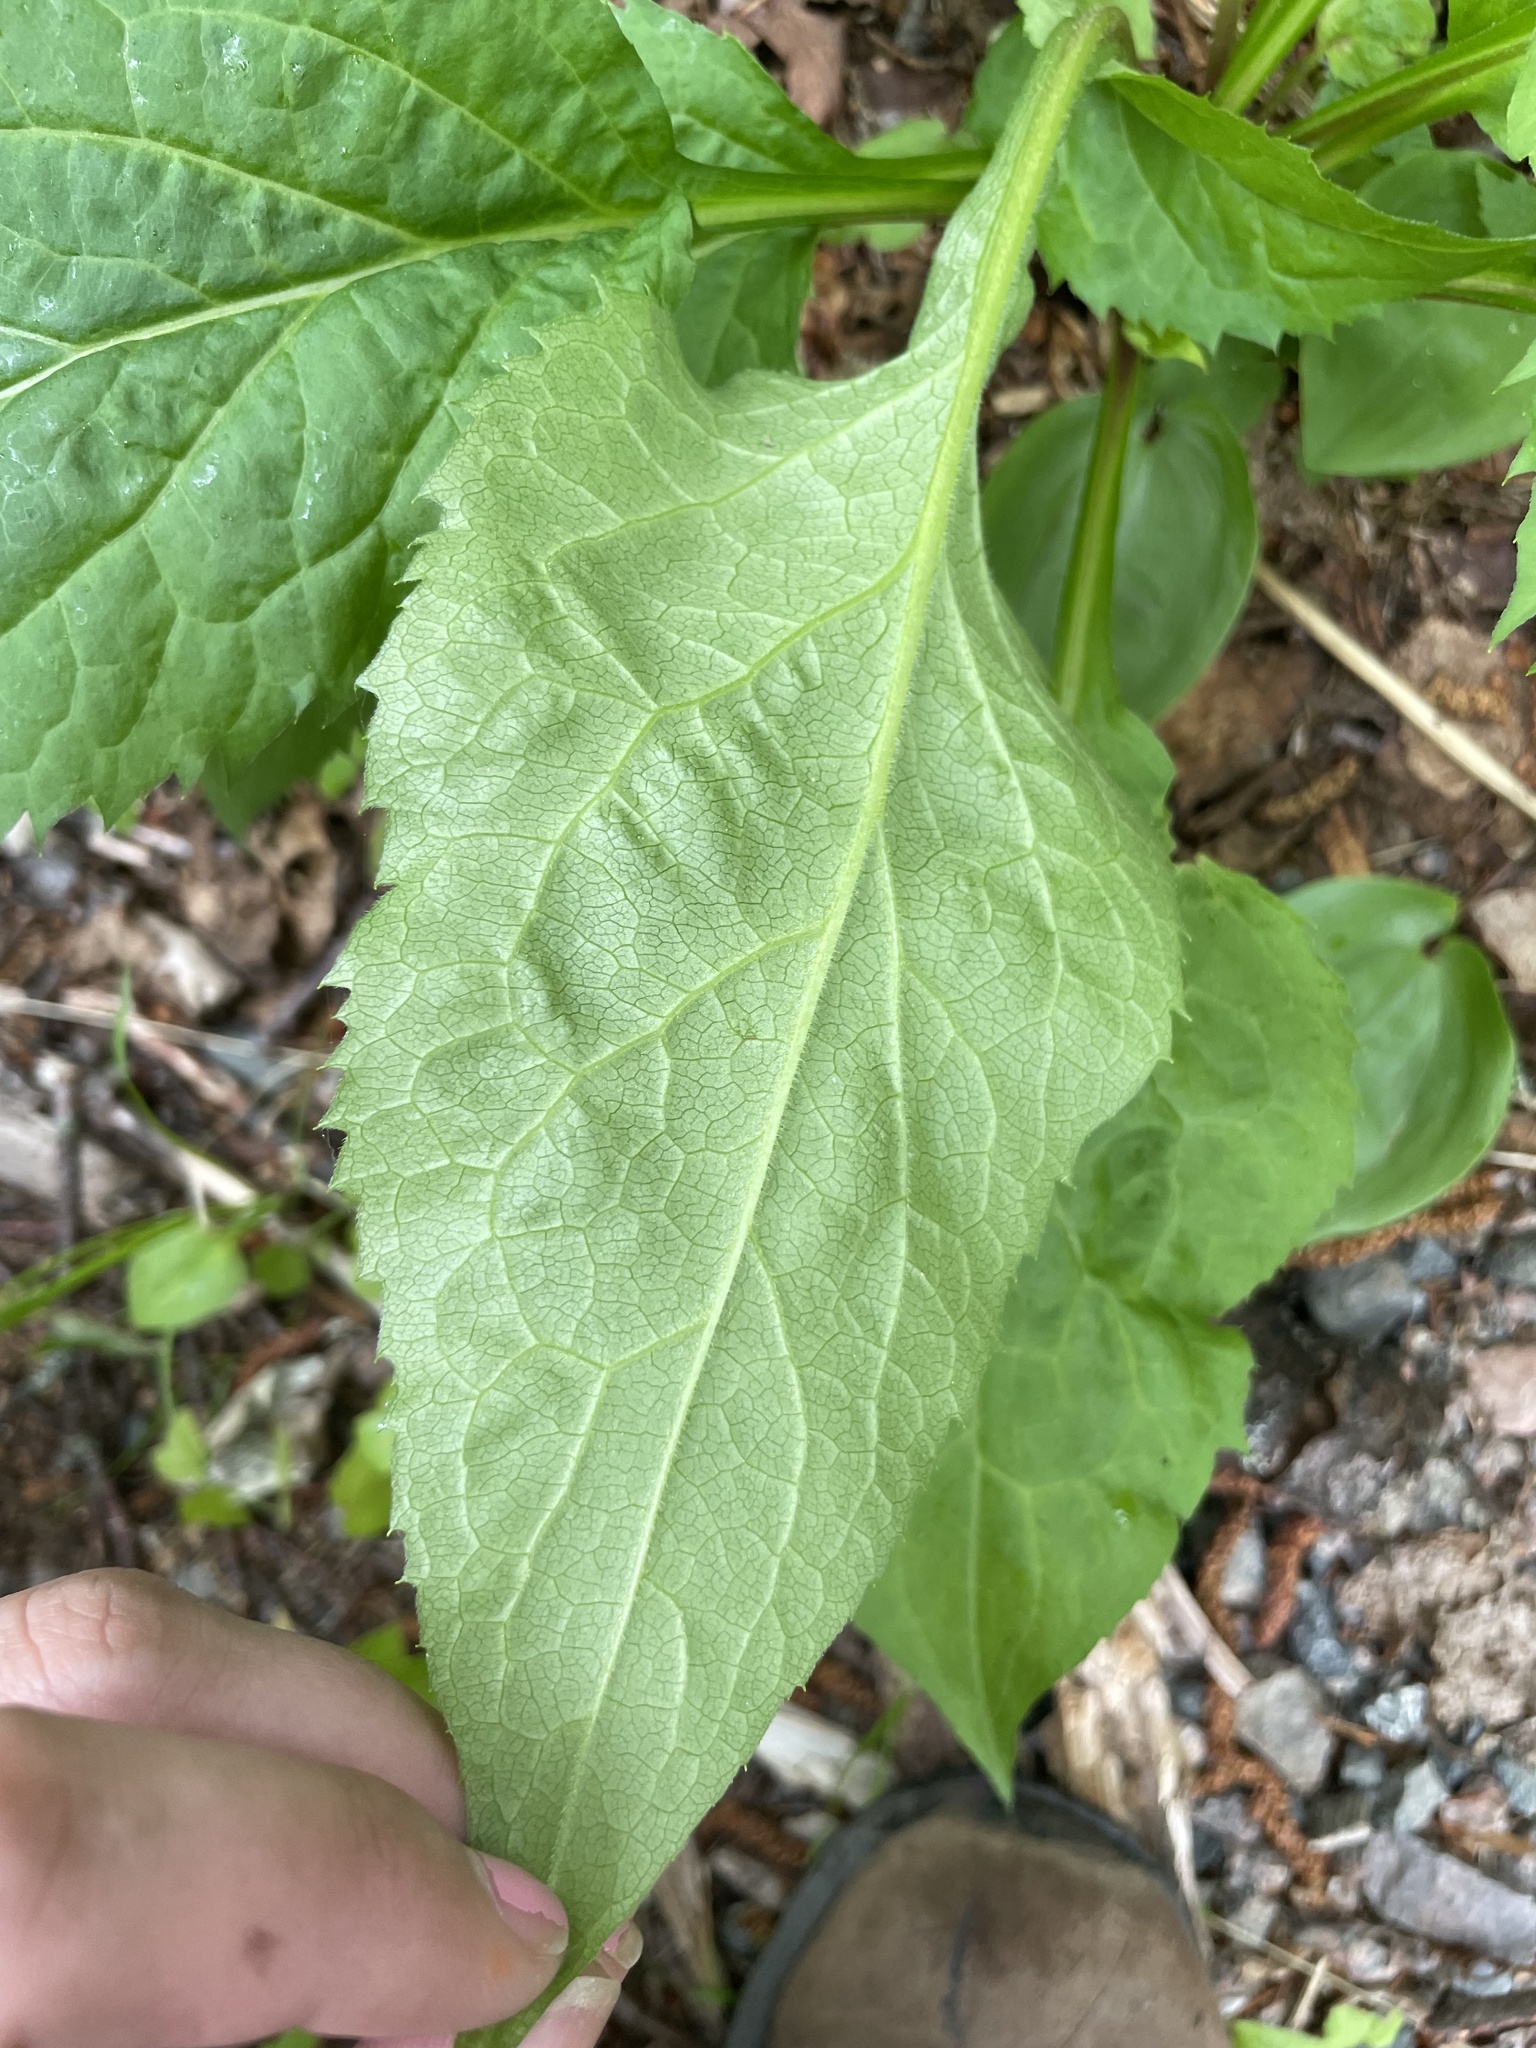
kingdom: Plantae
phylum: Tracheophyta
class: Magnoliopsida
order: Asterales
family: Asteraceae
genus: Solidago
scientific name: Solidago macrophylla
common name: Large-leaved goldenrod
